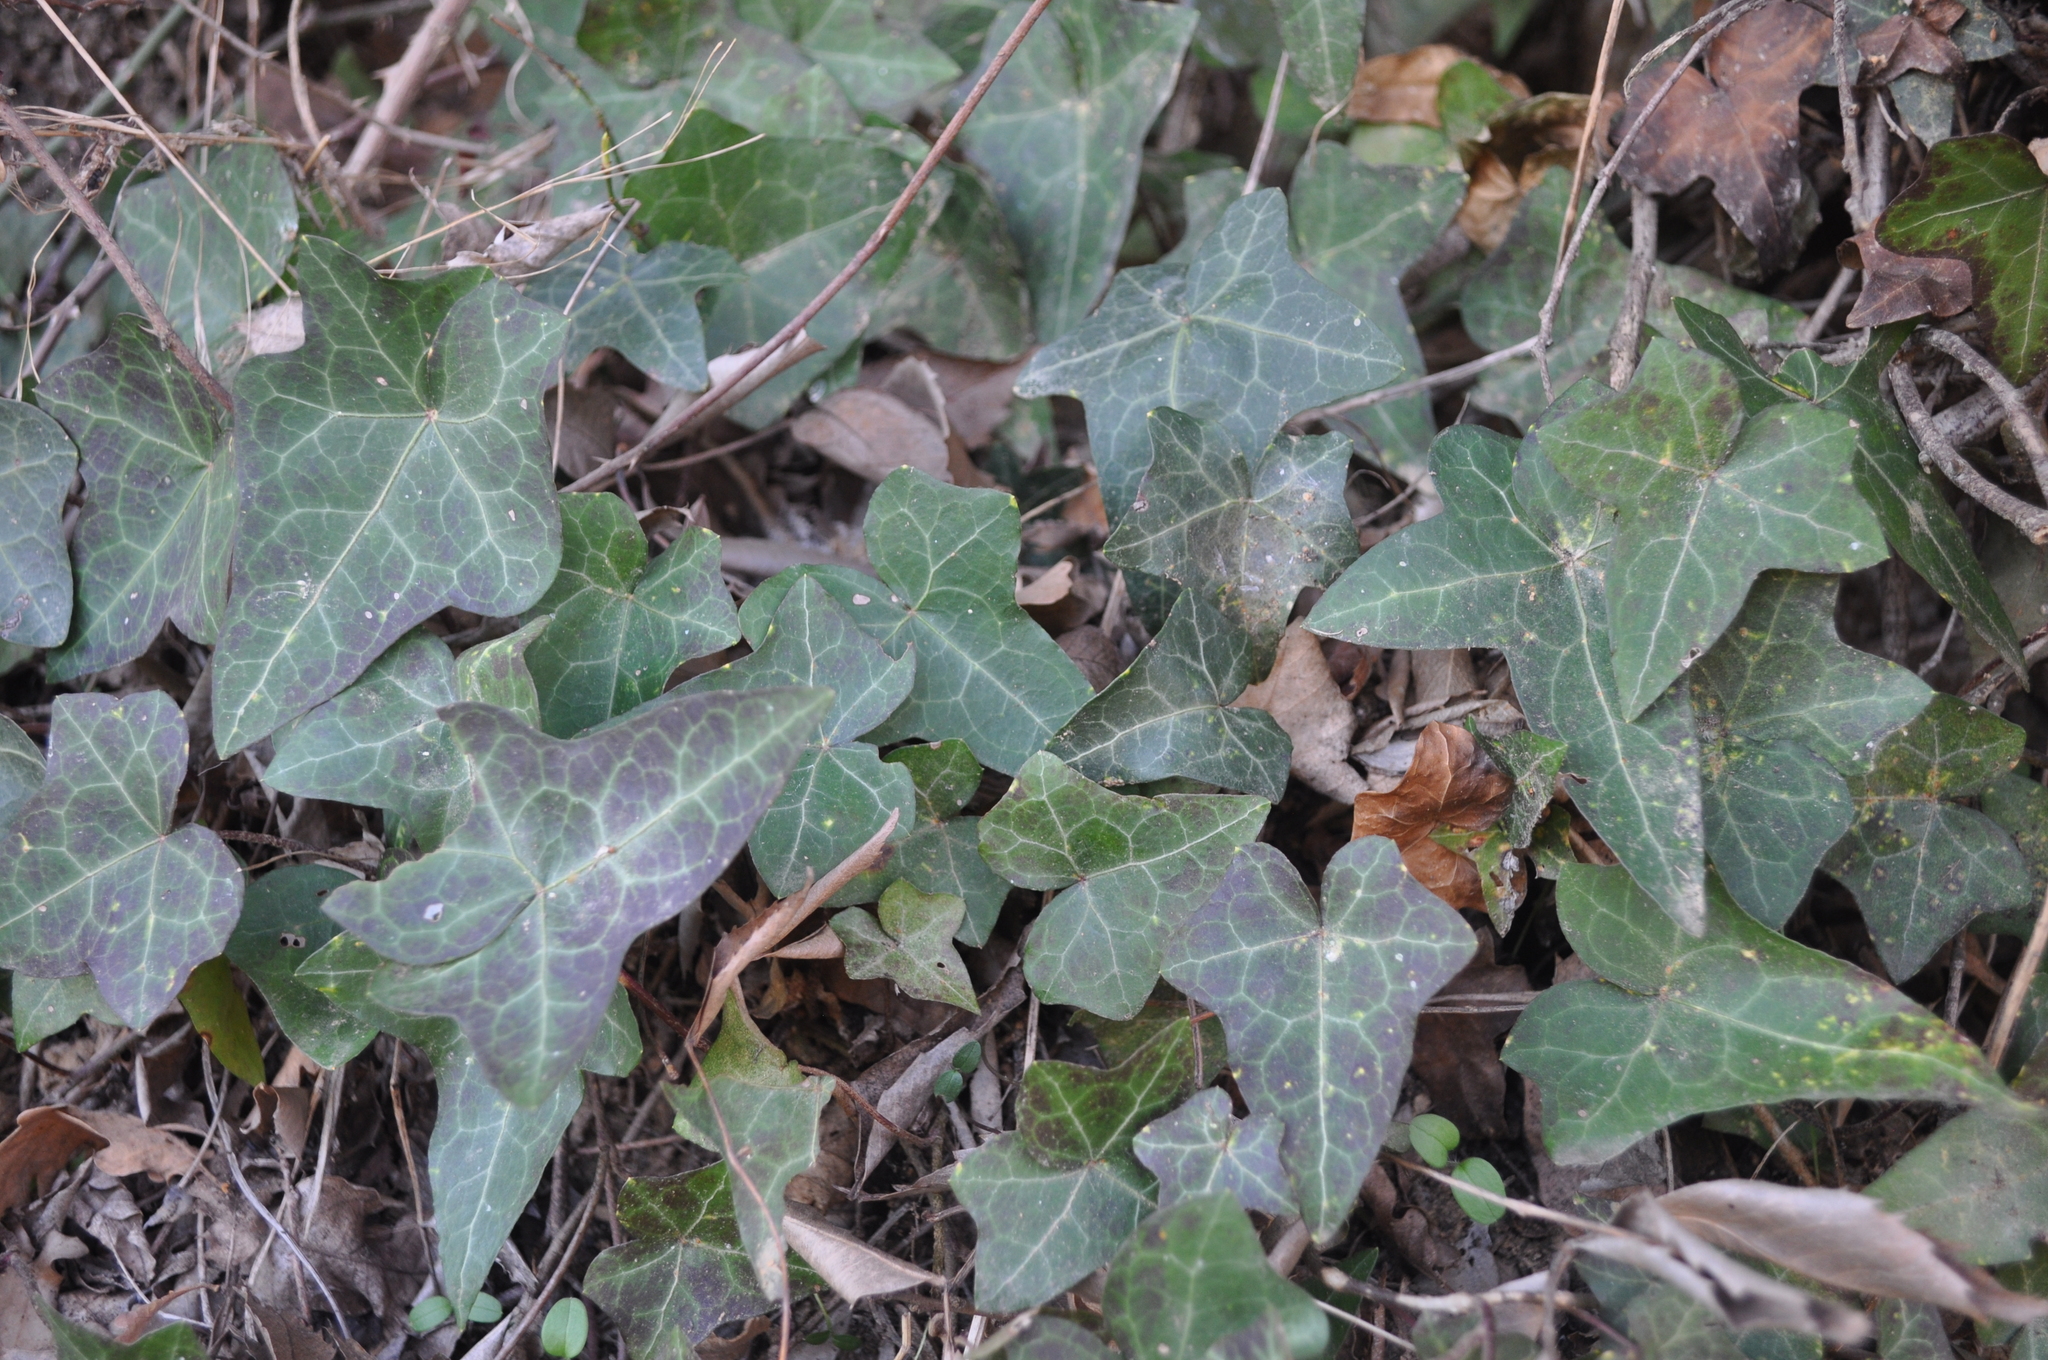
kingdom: Plantae
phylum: Tracheophyta
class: Magnoliopsida
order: Apiales
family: Araliaceae
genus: Hedera
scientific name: Hedera helix
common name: Ivy
